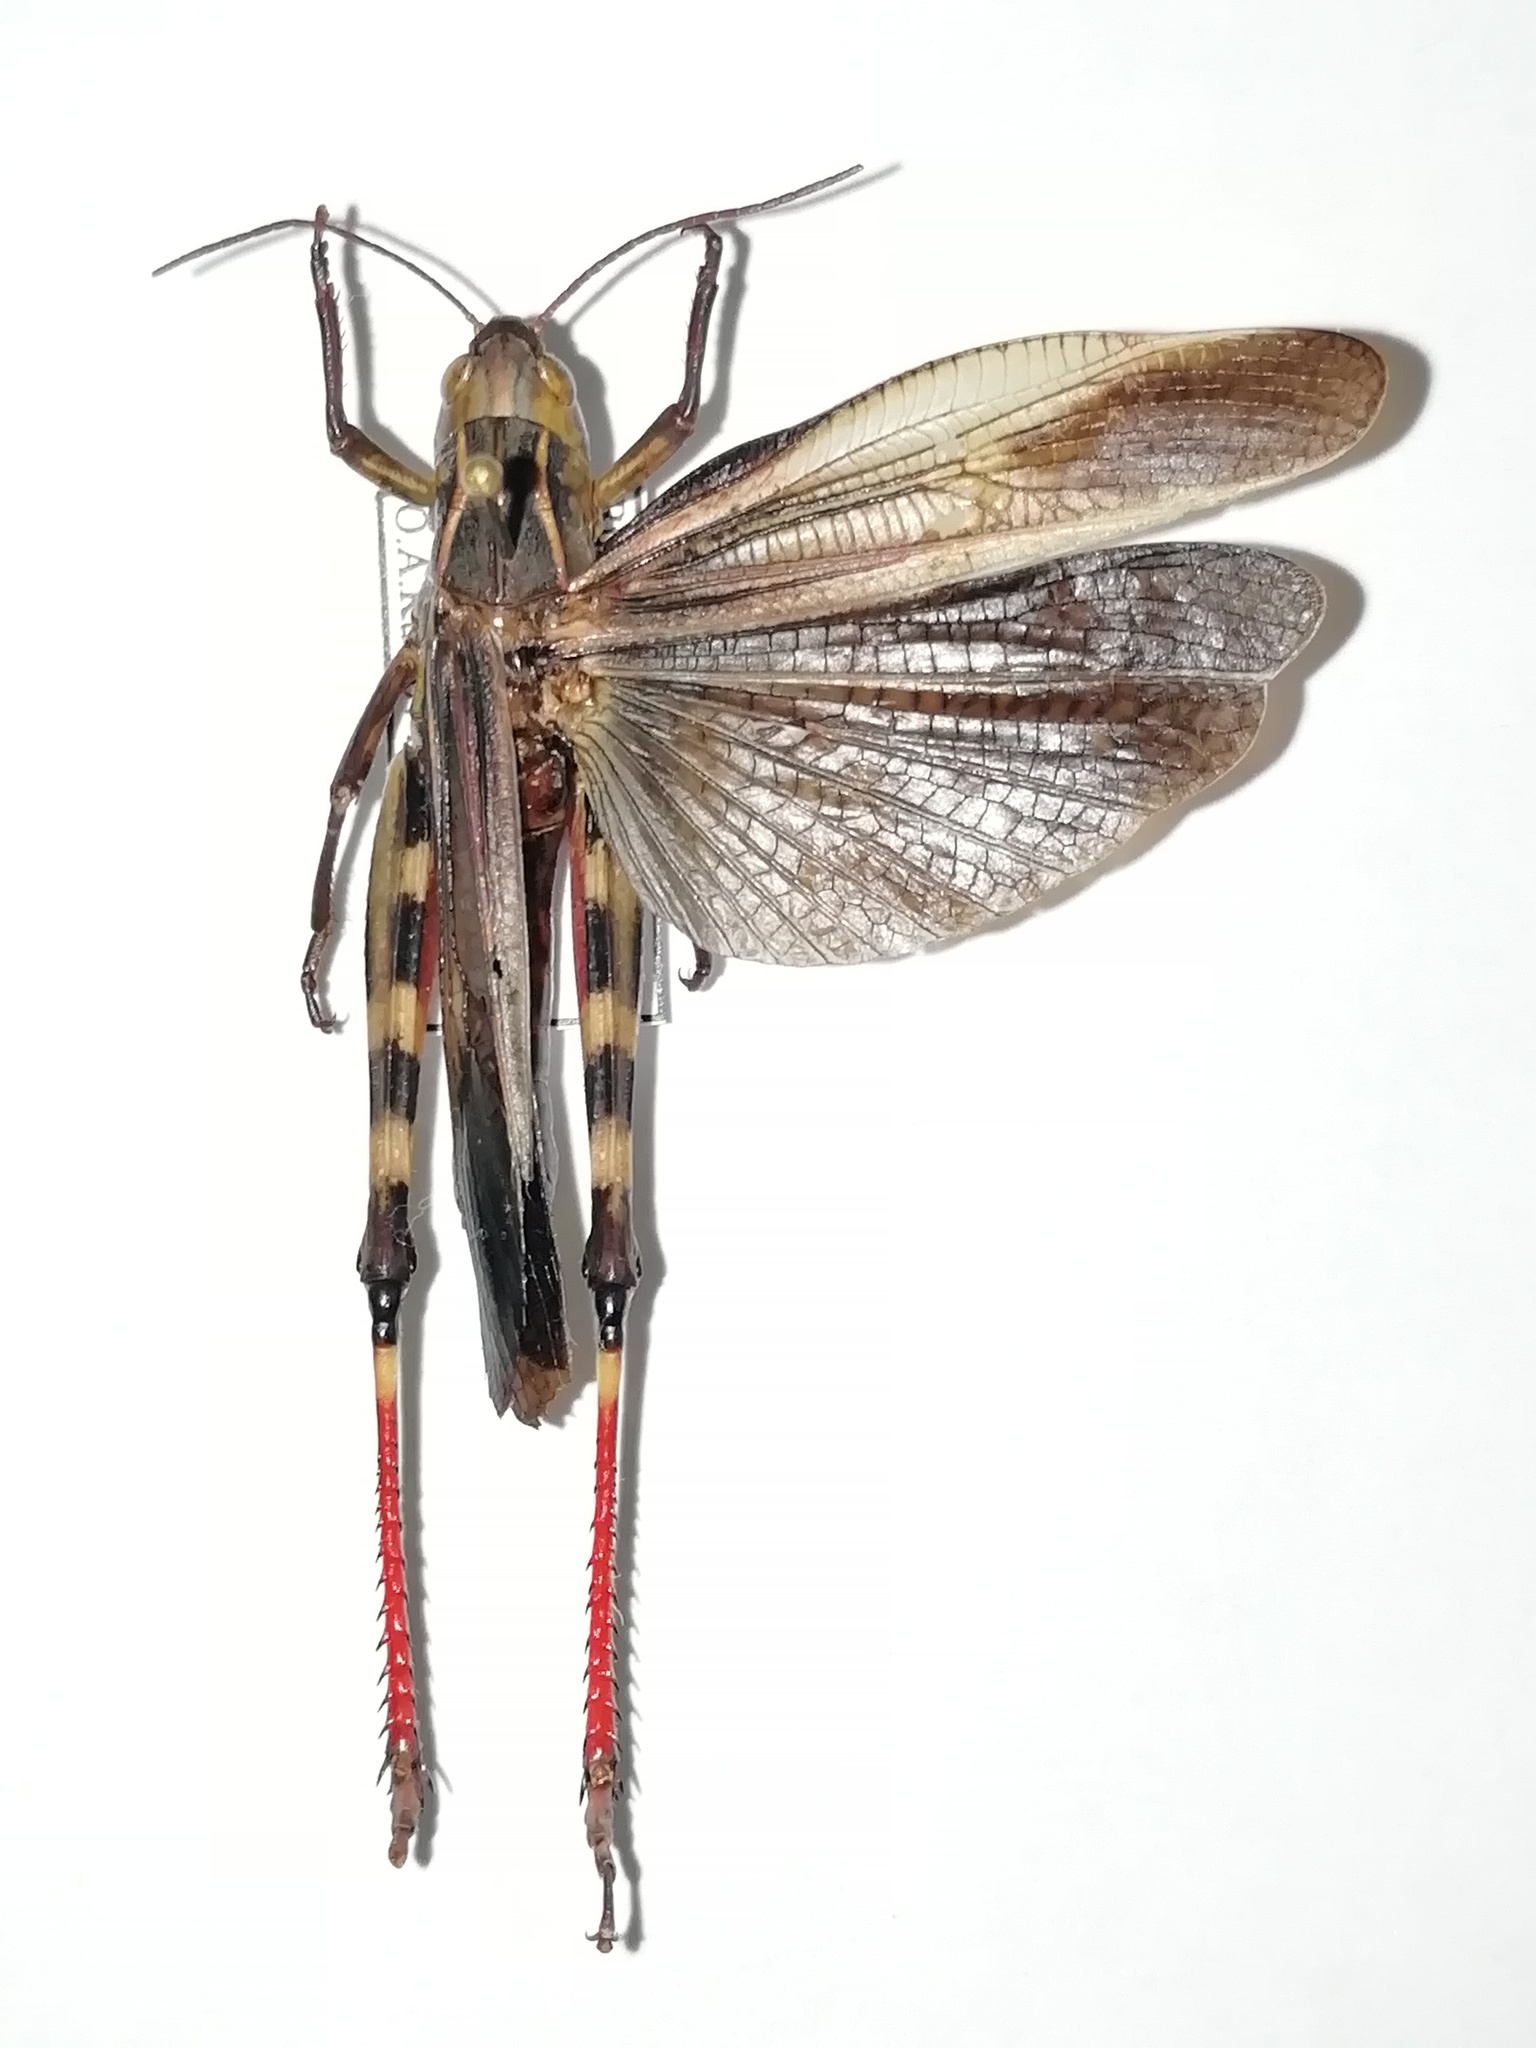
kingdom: Animalia
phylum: Arthropoda
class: Insecta
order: Orthoptera
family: Acrididae
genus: Arcyptera
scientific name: Arcyptera fusca
